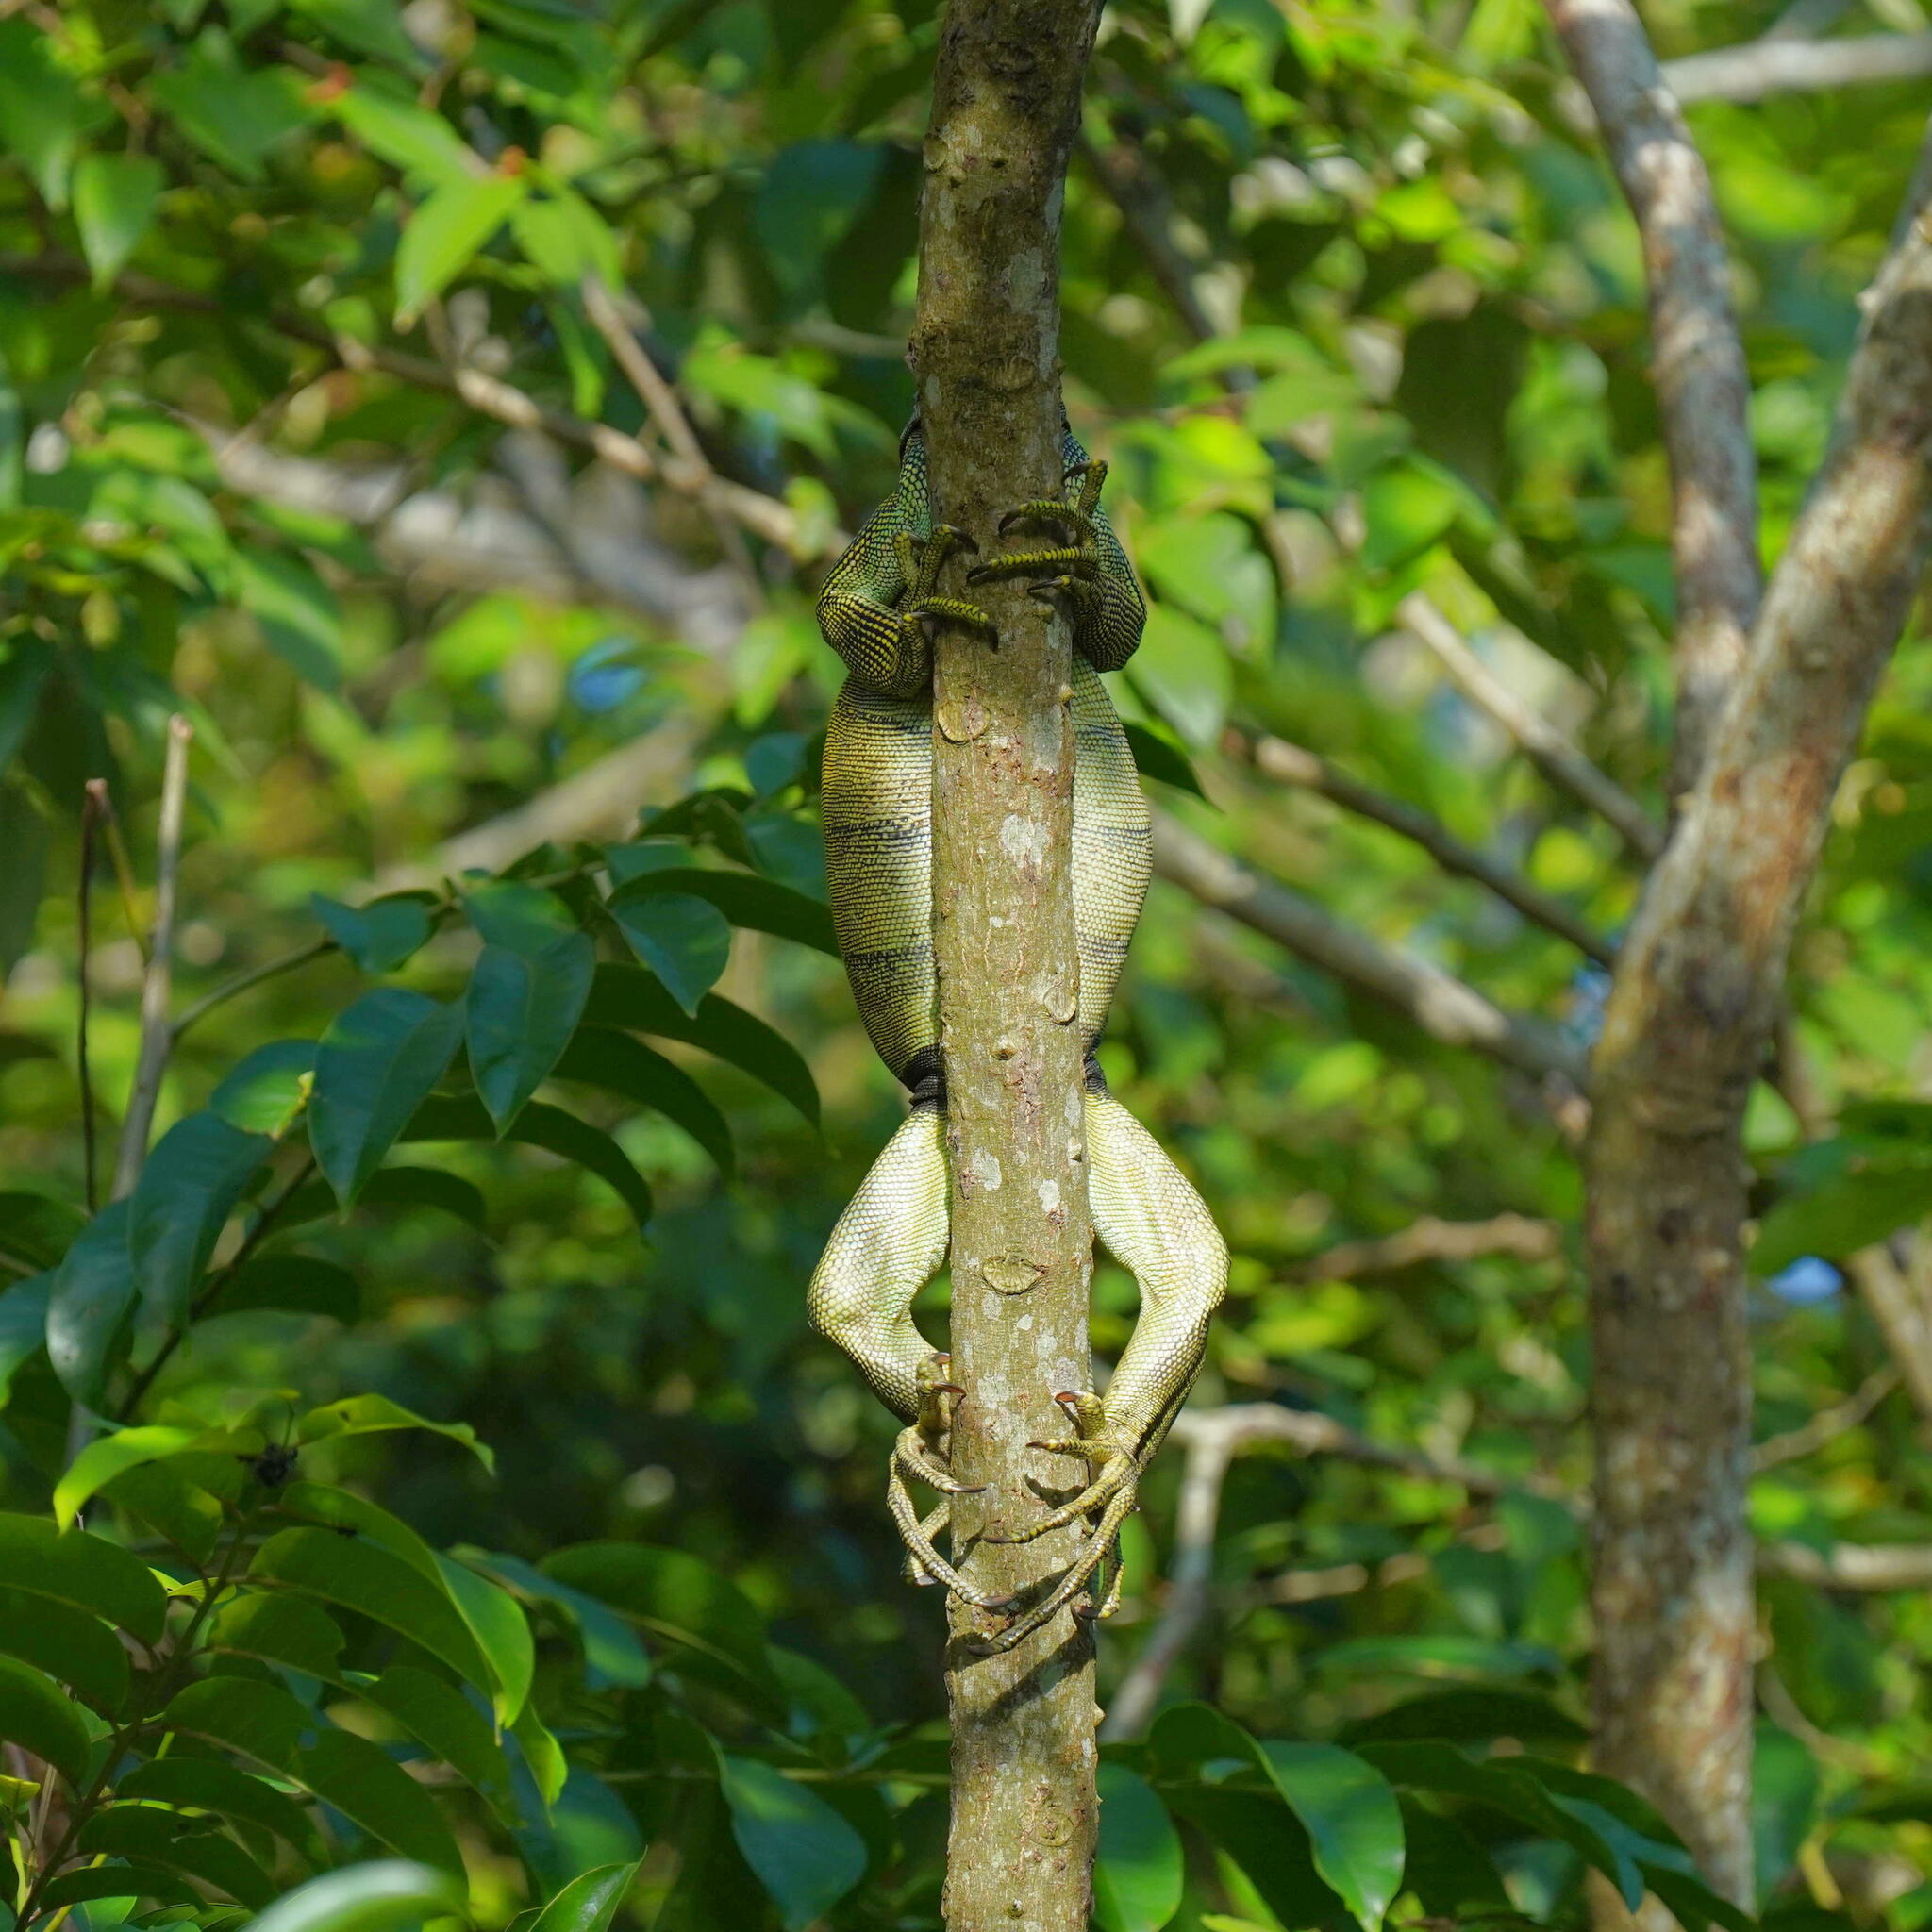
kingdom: Animalia
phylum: Chordata
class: Squamata
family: Iguanidae
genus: Iguana
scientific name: Iguana iguana
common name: Green iguana
